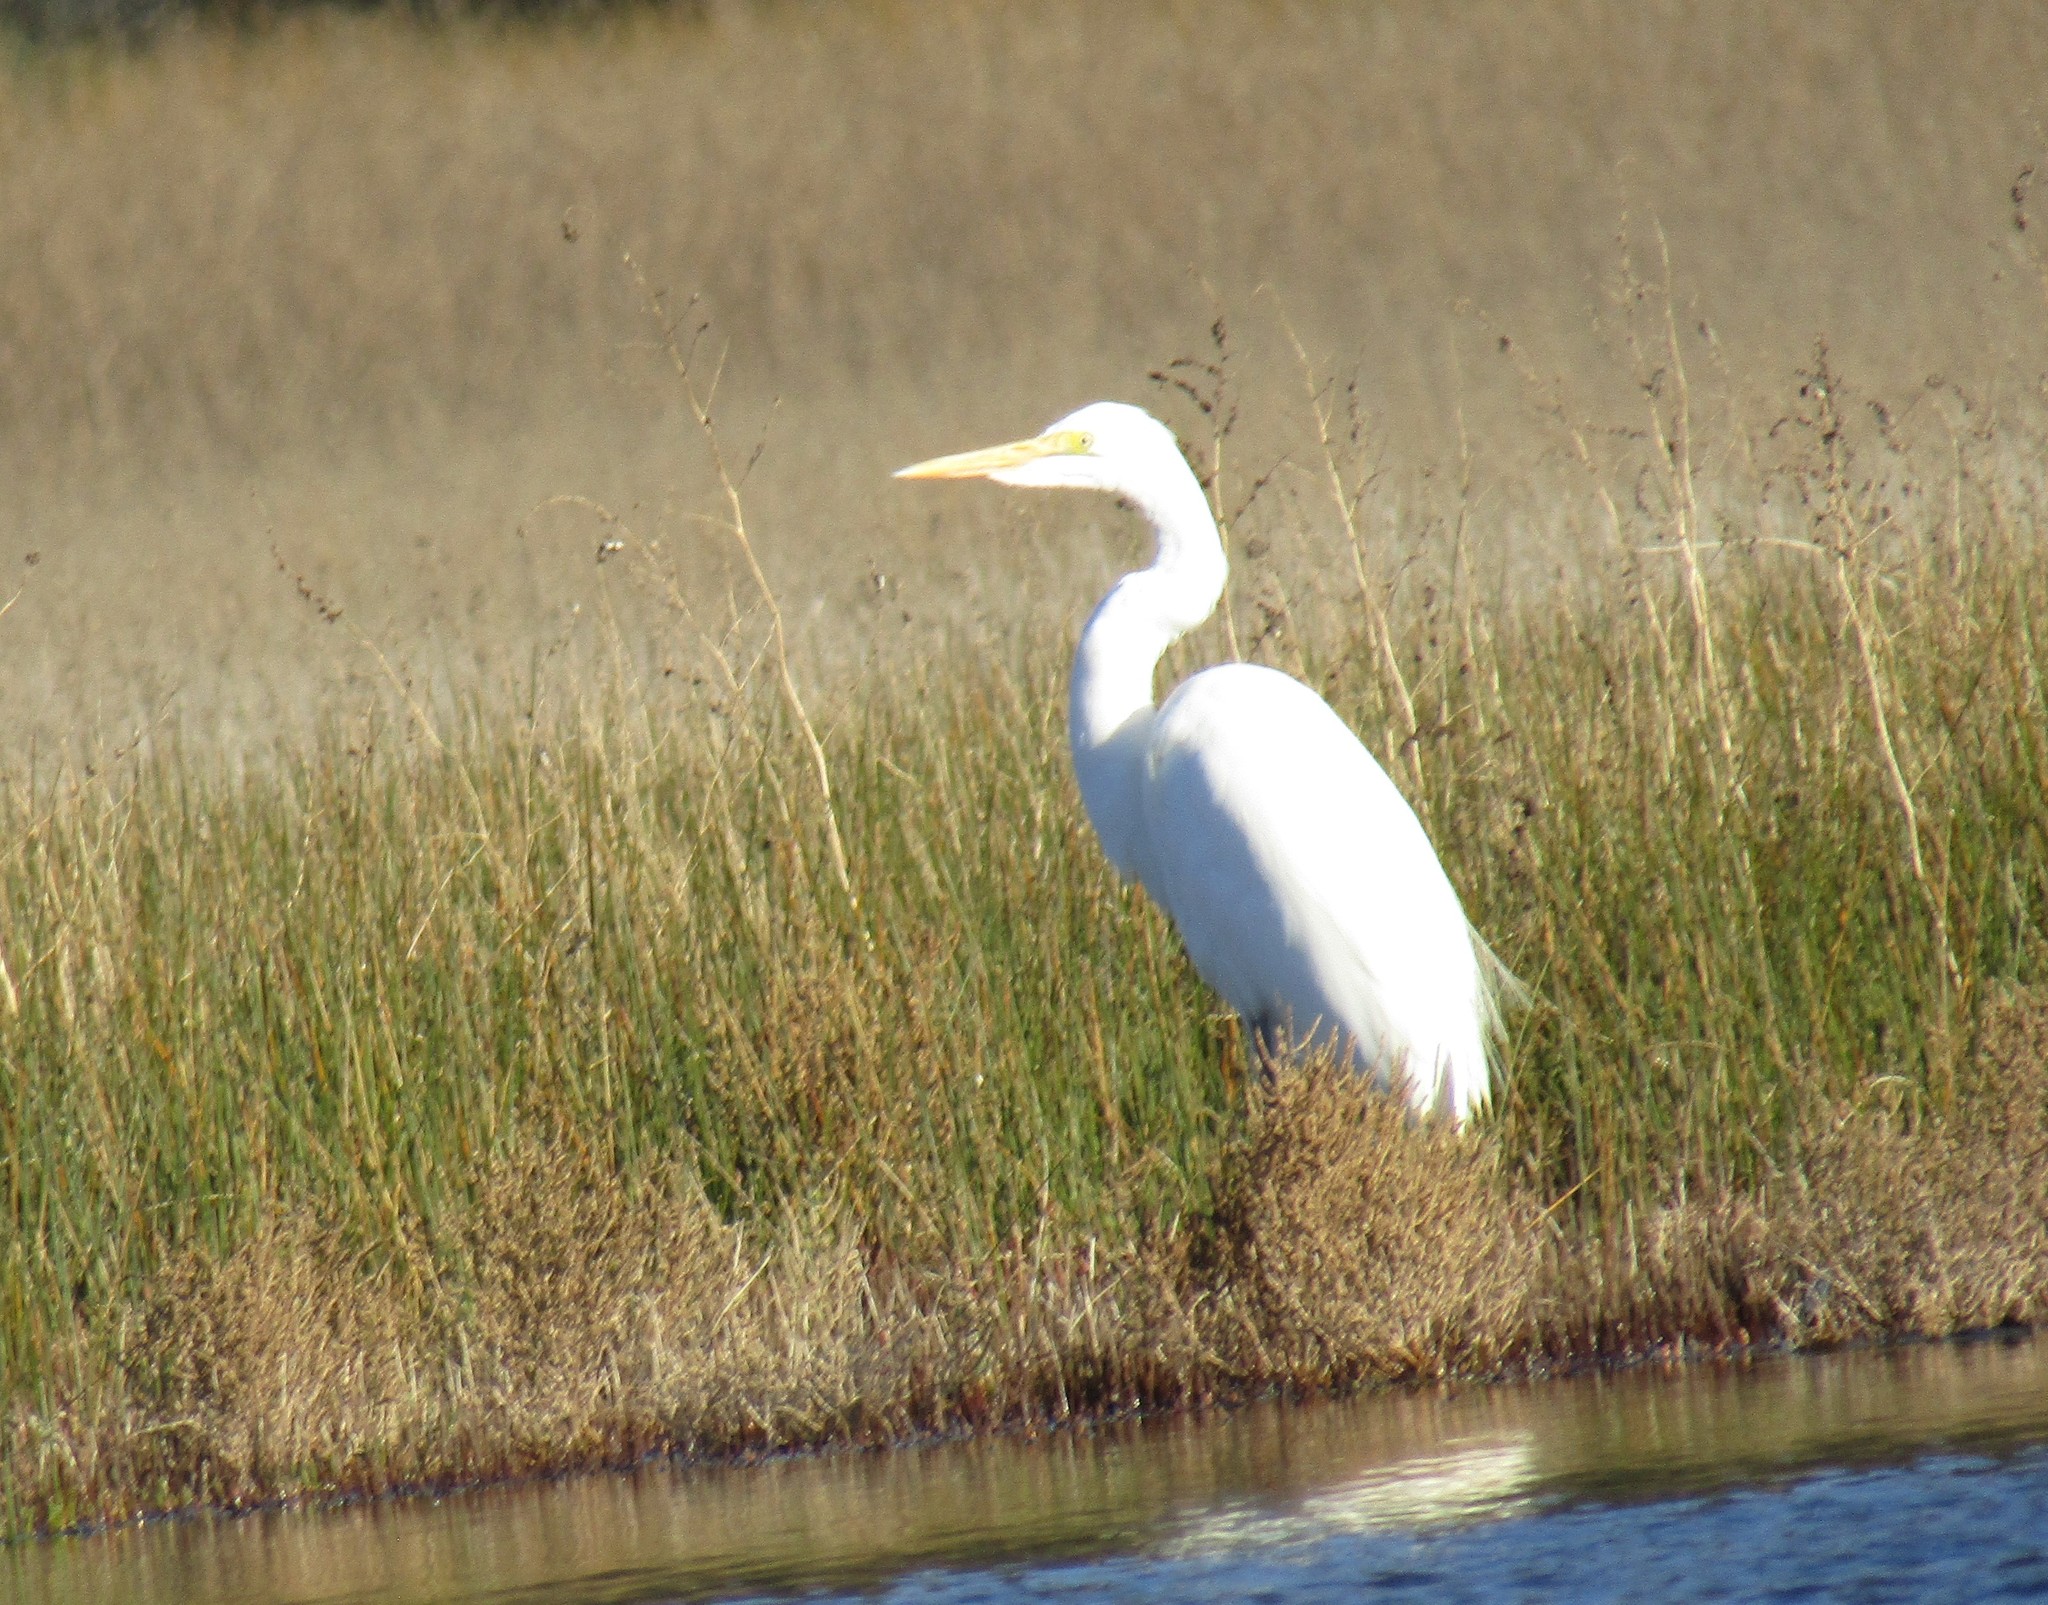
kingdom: Animalia
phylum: Chordata
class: Aves
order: Pelecaniformes
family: Ardeidae
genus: Ardea
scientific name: Ardea alba
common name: Great egret
